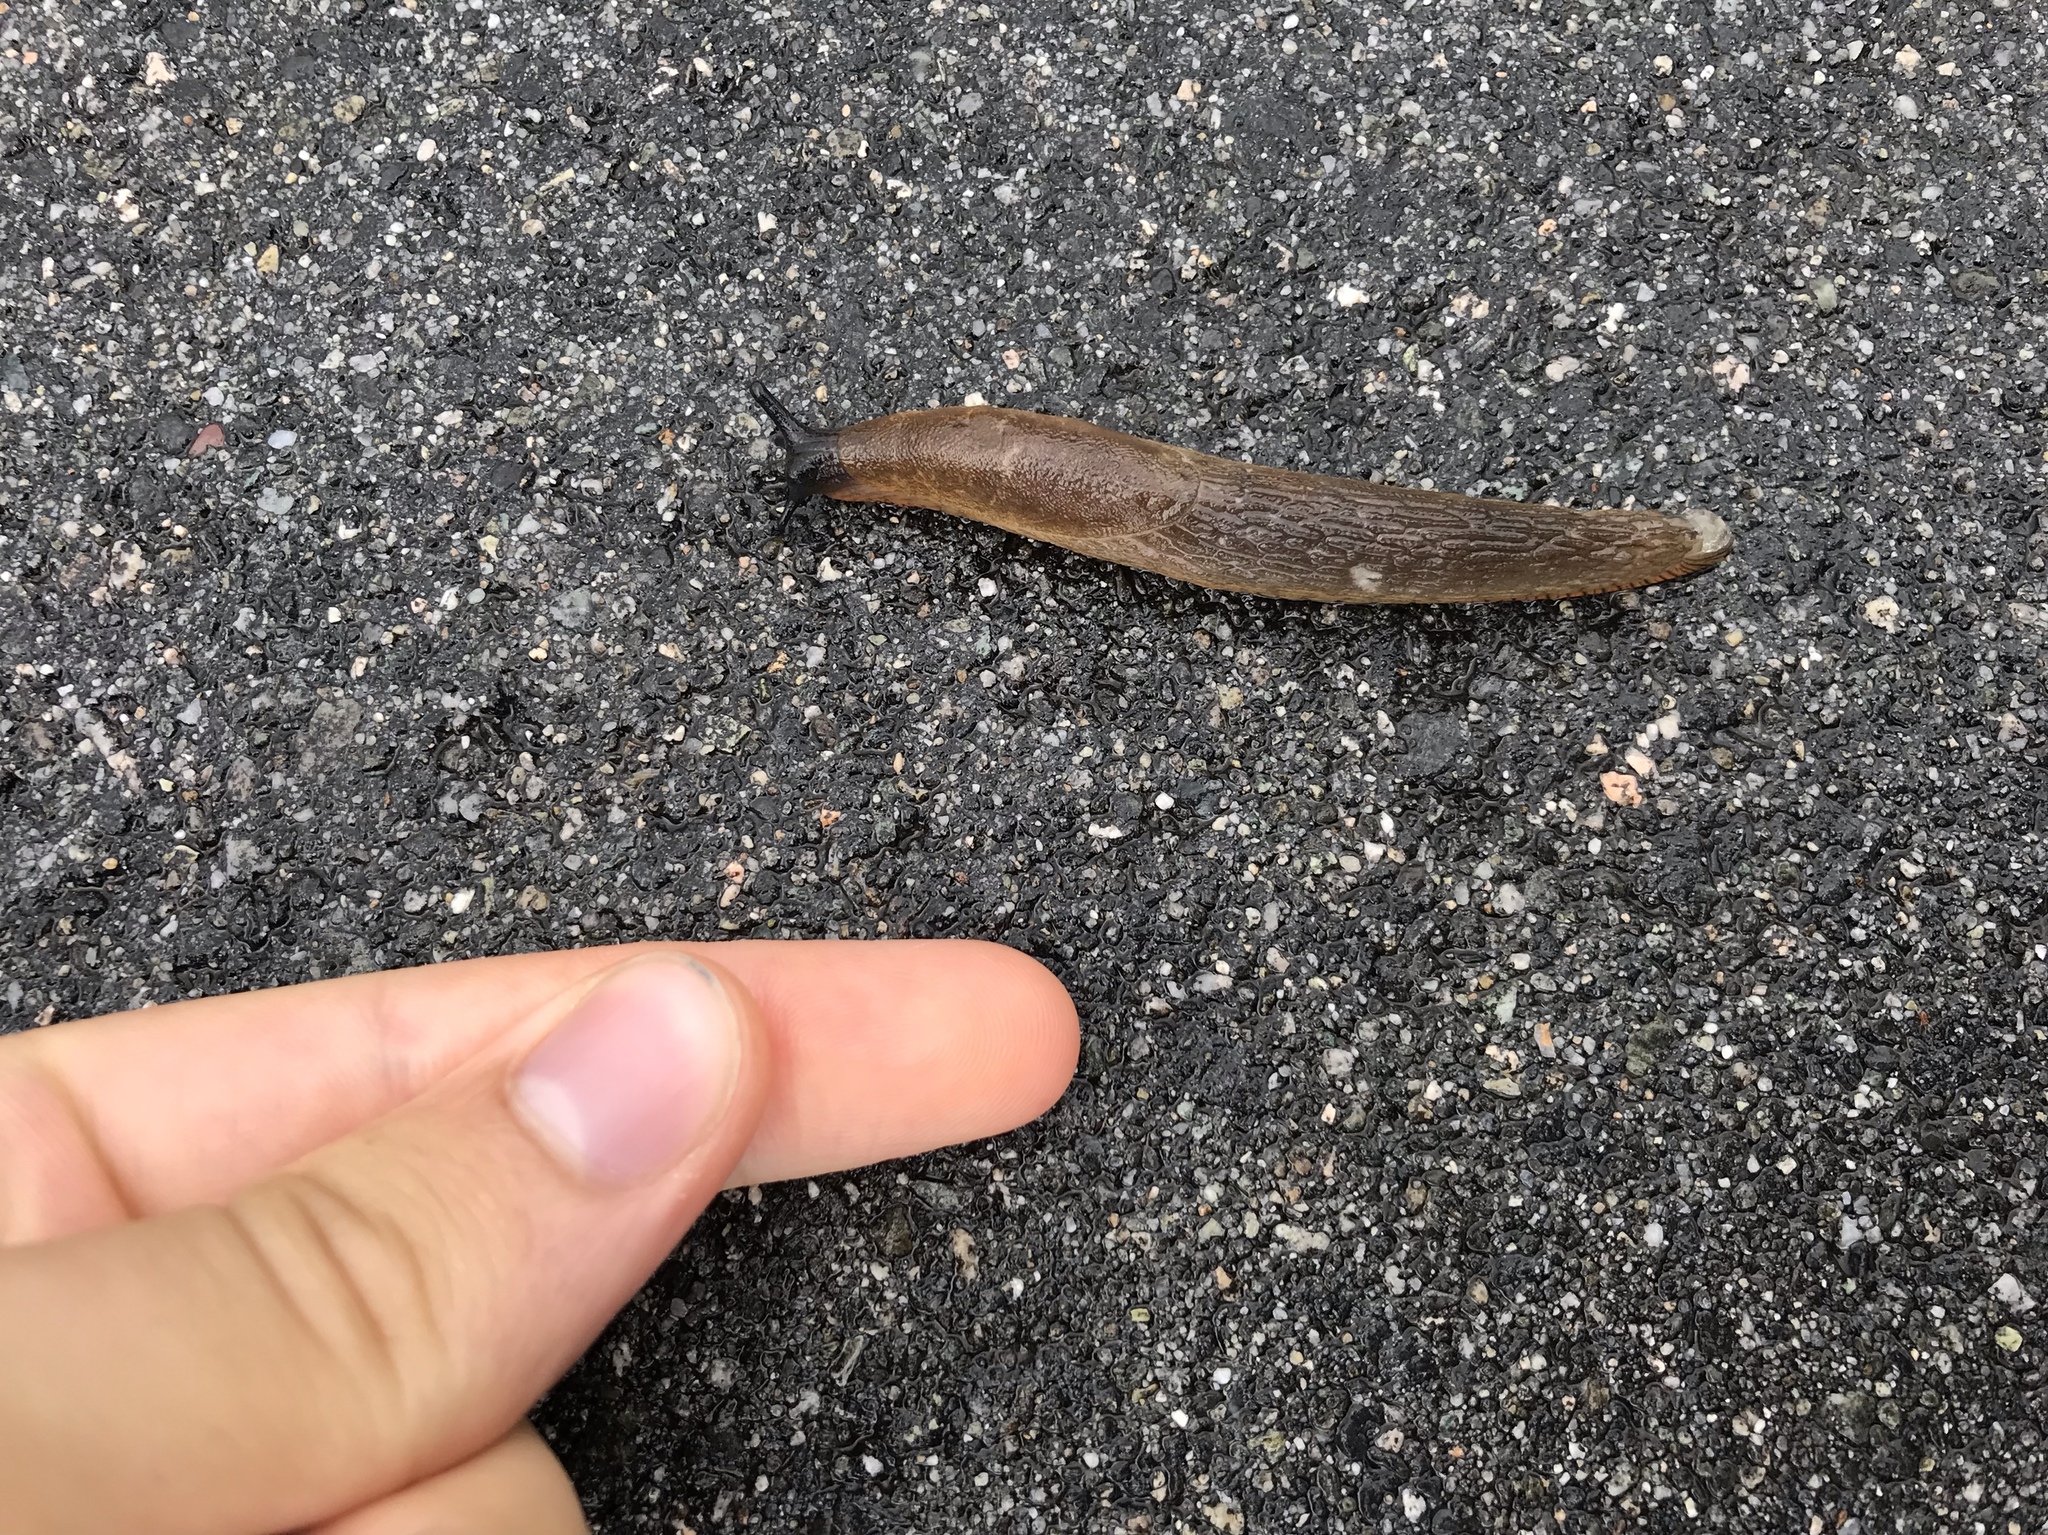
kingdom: Animalia
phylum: Mollusca
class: Gastropoda
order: Stylommatophora
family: Arionidae
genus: Arion
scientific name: Arion rufus
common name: Chocolate arion
